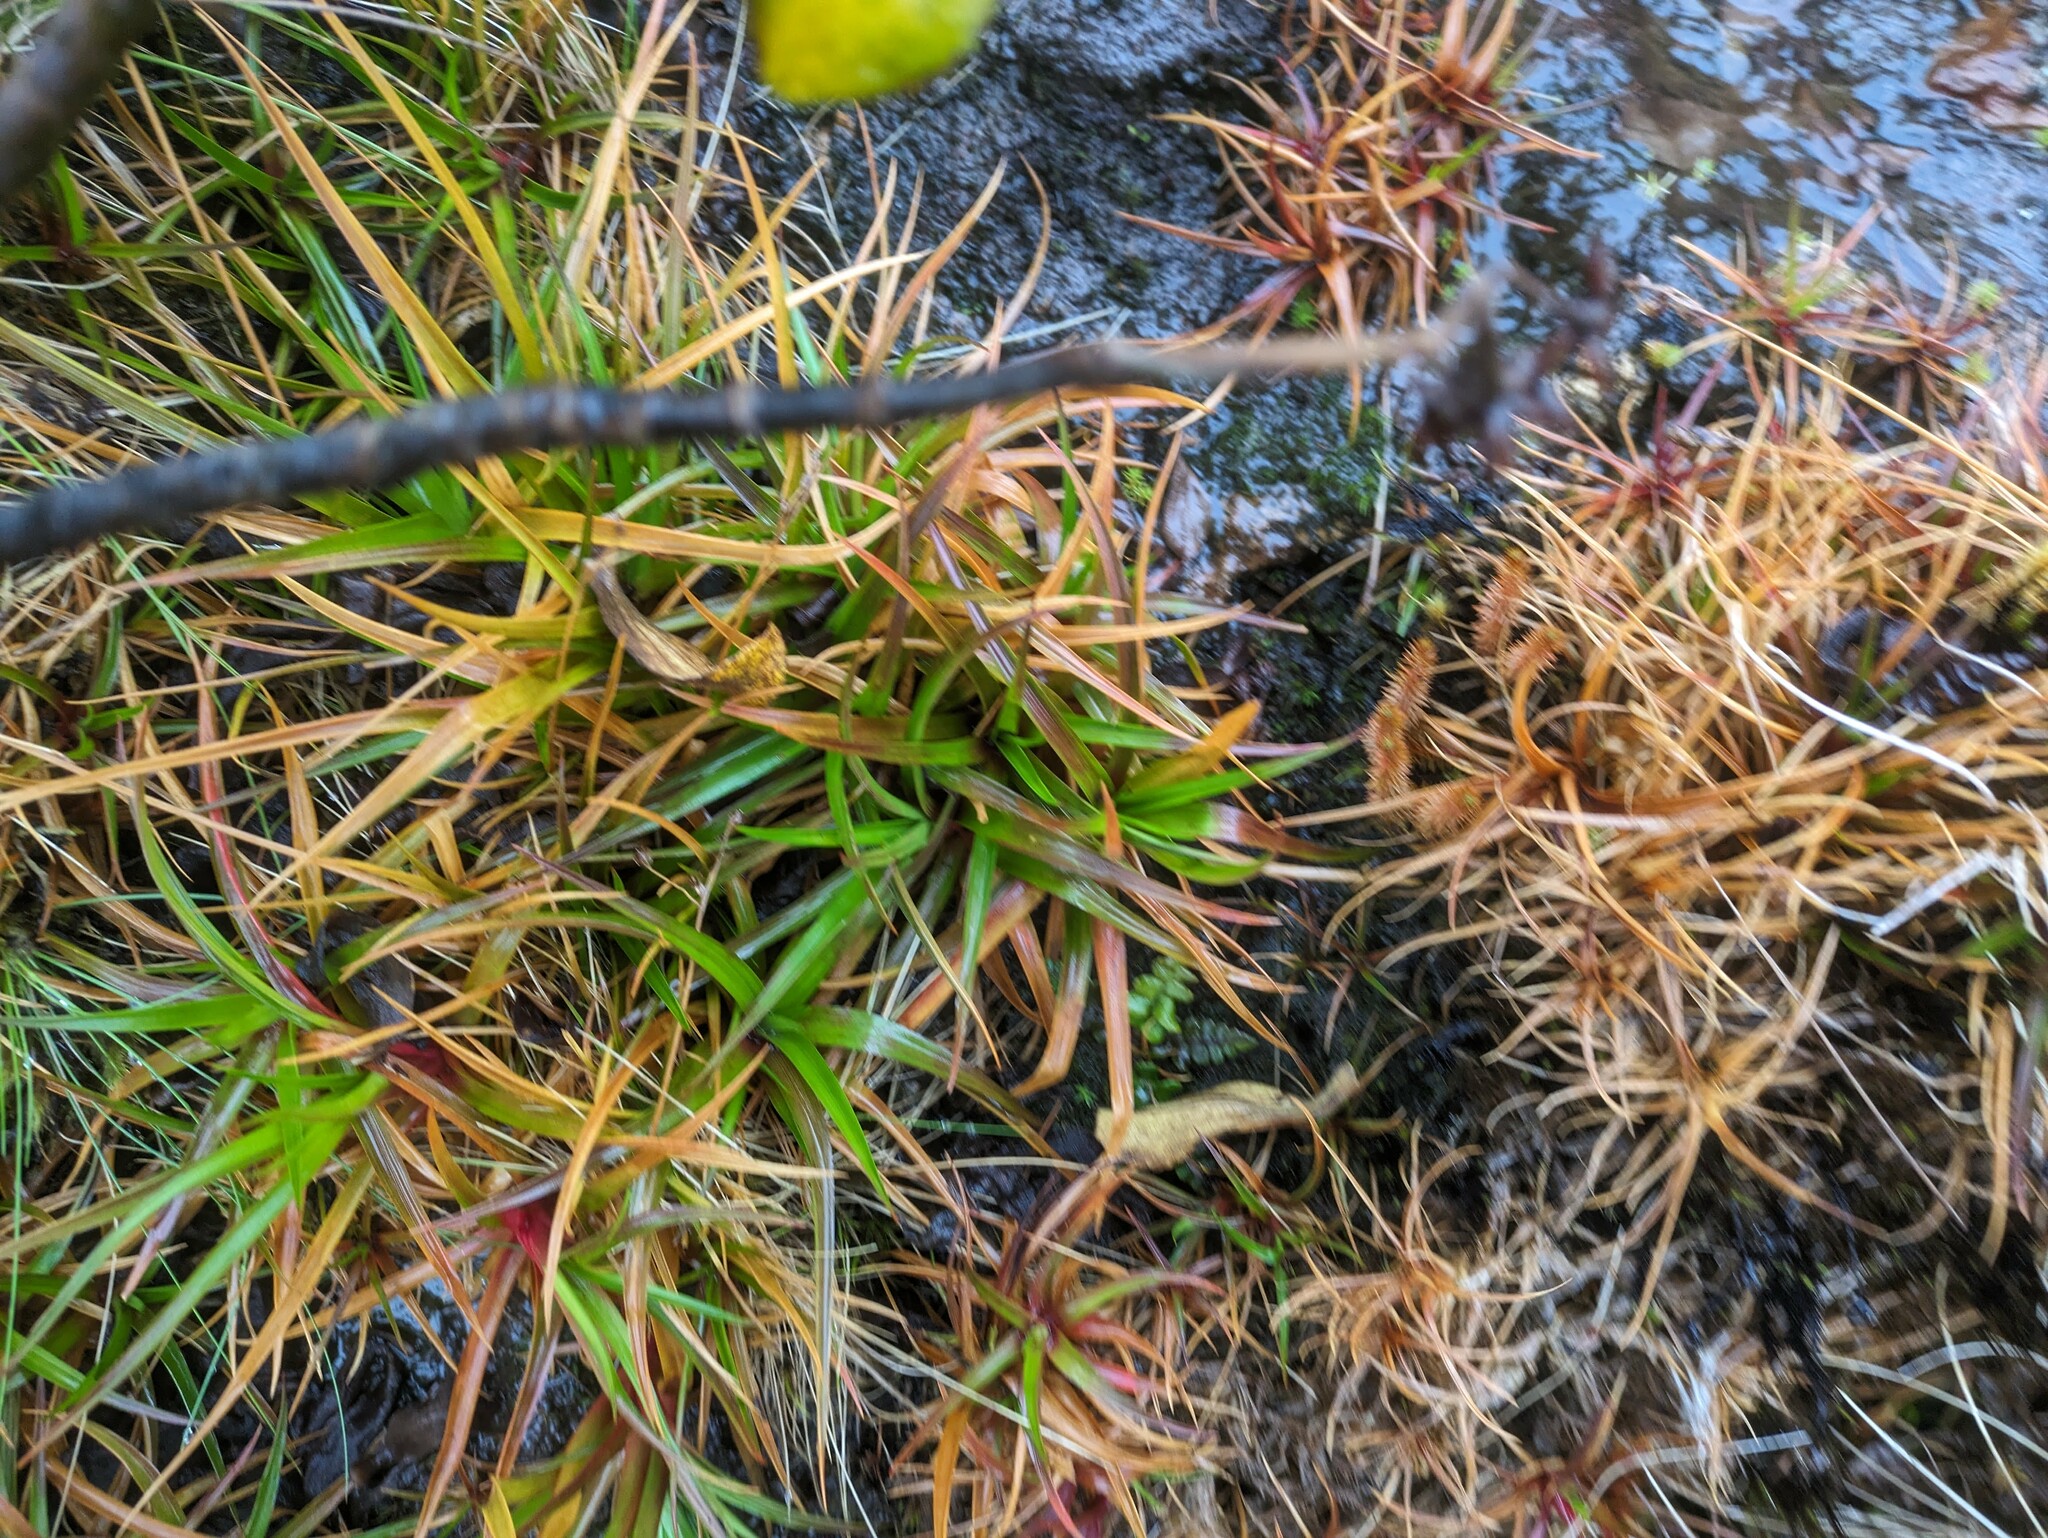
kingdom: Plantae
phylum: Tracheophyta
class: Liliopsida
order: Poales
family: Juncaceae
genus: Juncus
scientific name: Juncus planifolius
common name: Broadleaf rush
